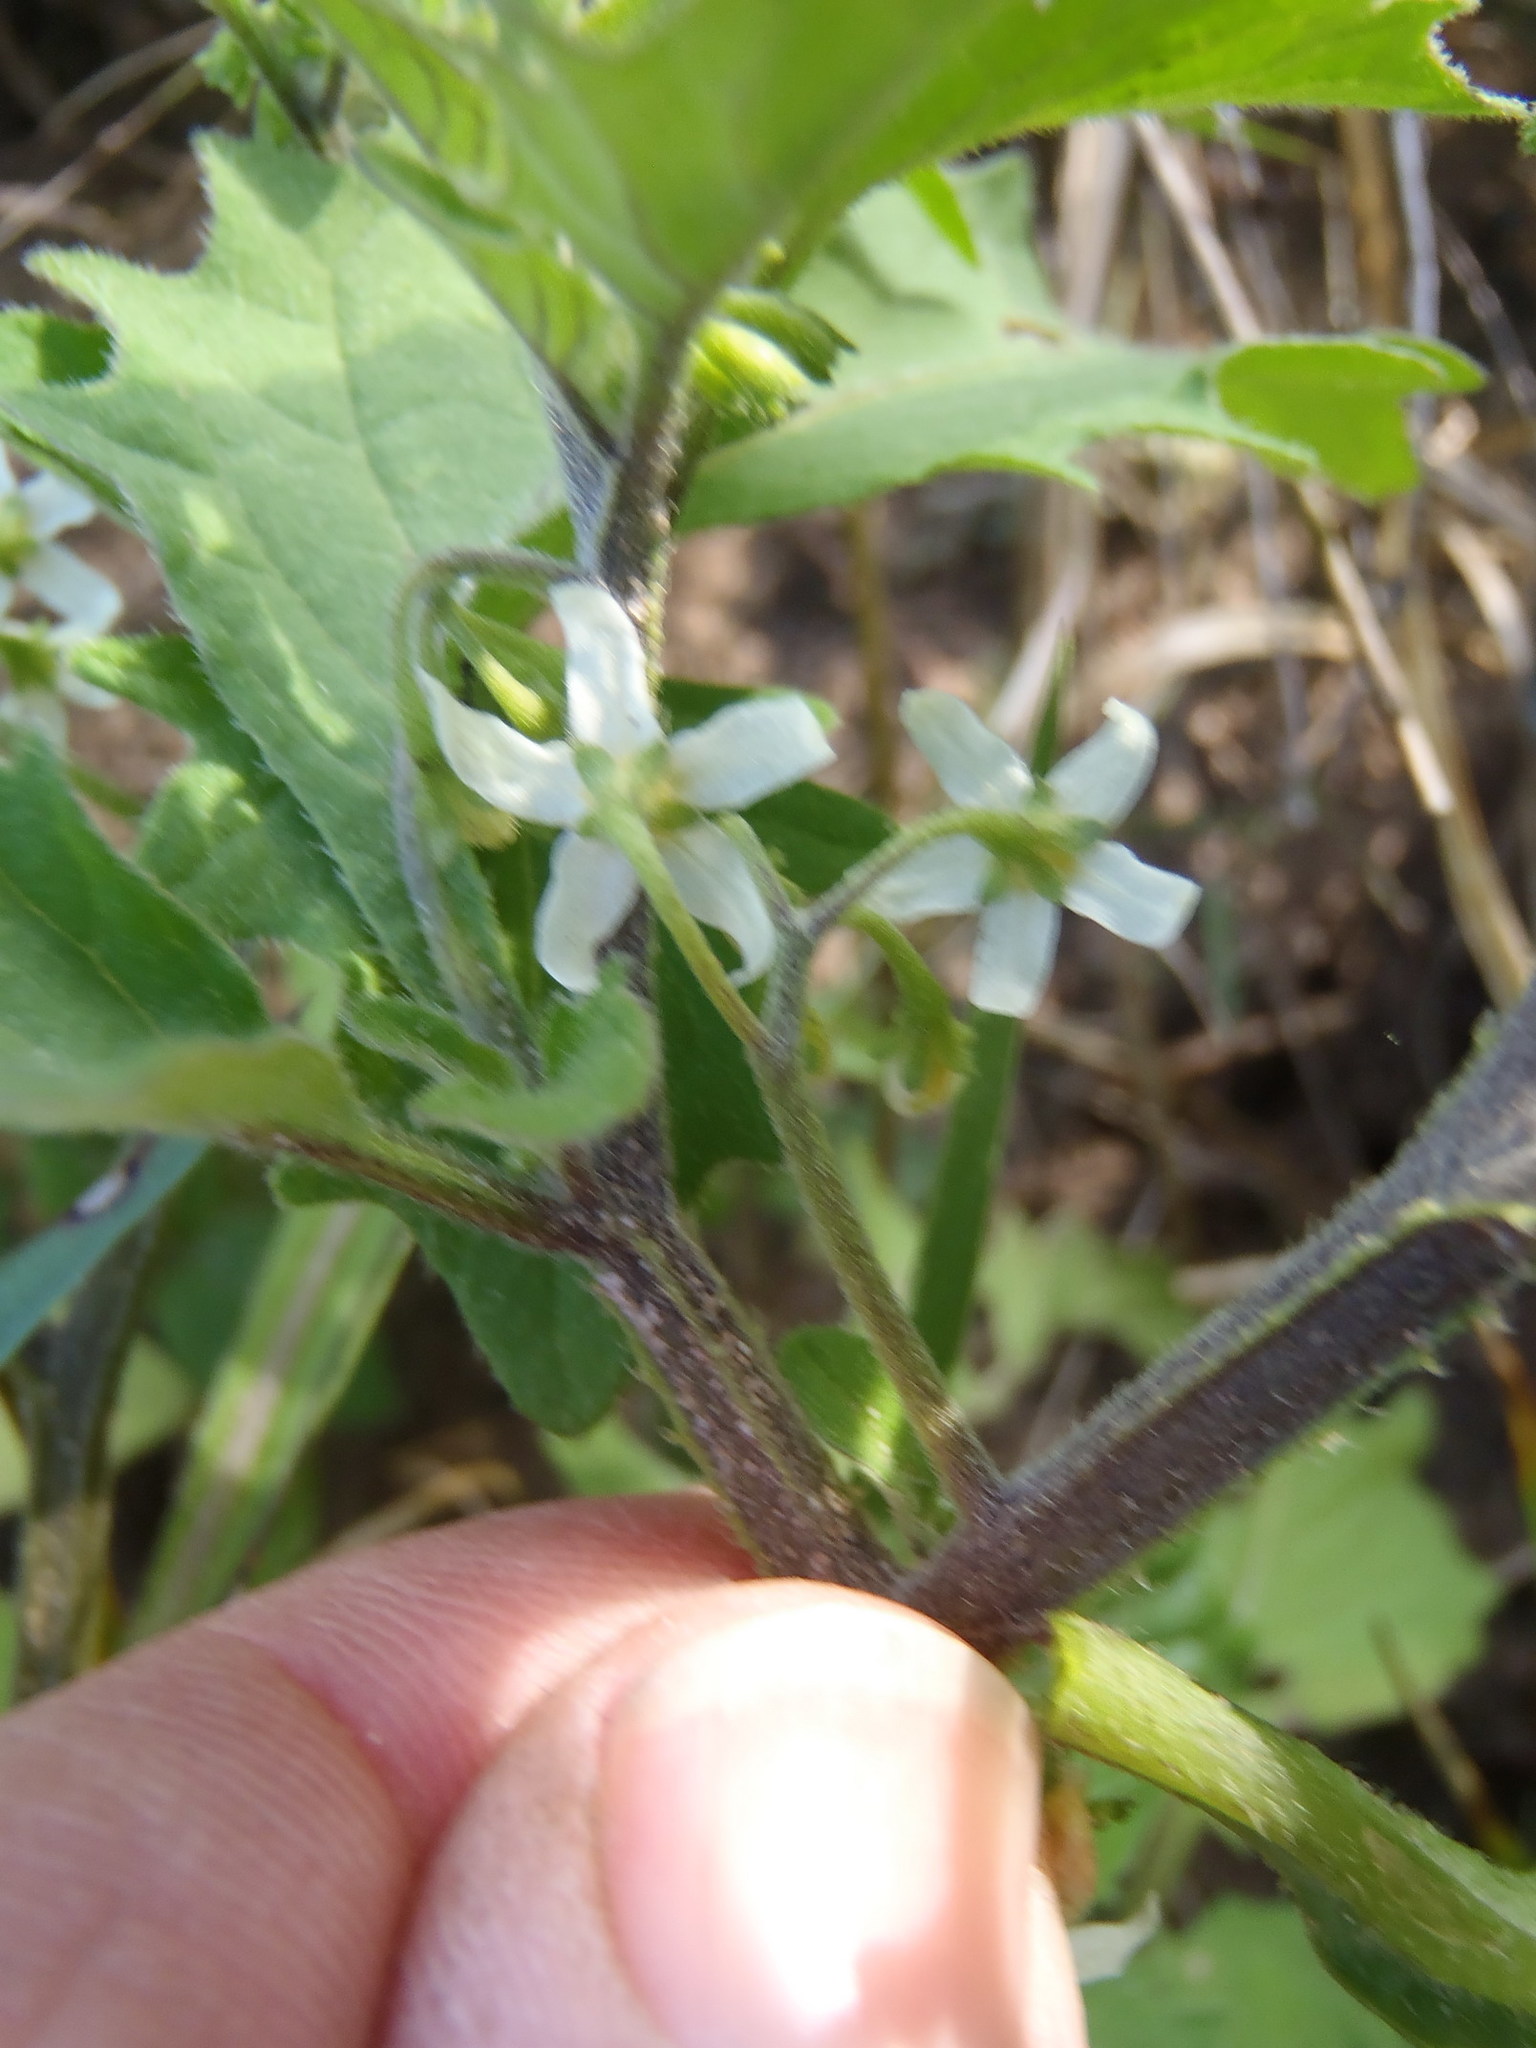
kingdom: Plantae
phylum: Tracheophyta
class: Magnoliopsida
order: Solanales
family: Solanaceae
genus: Solanum
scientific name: Solanum retroflexum
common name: Wonderberry
